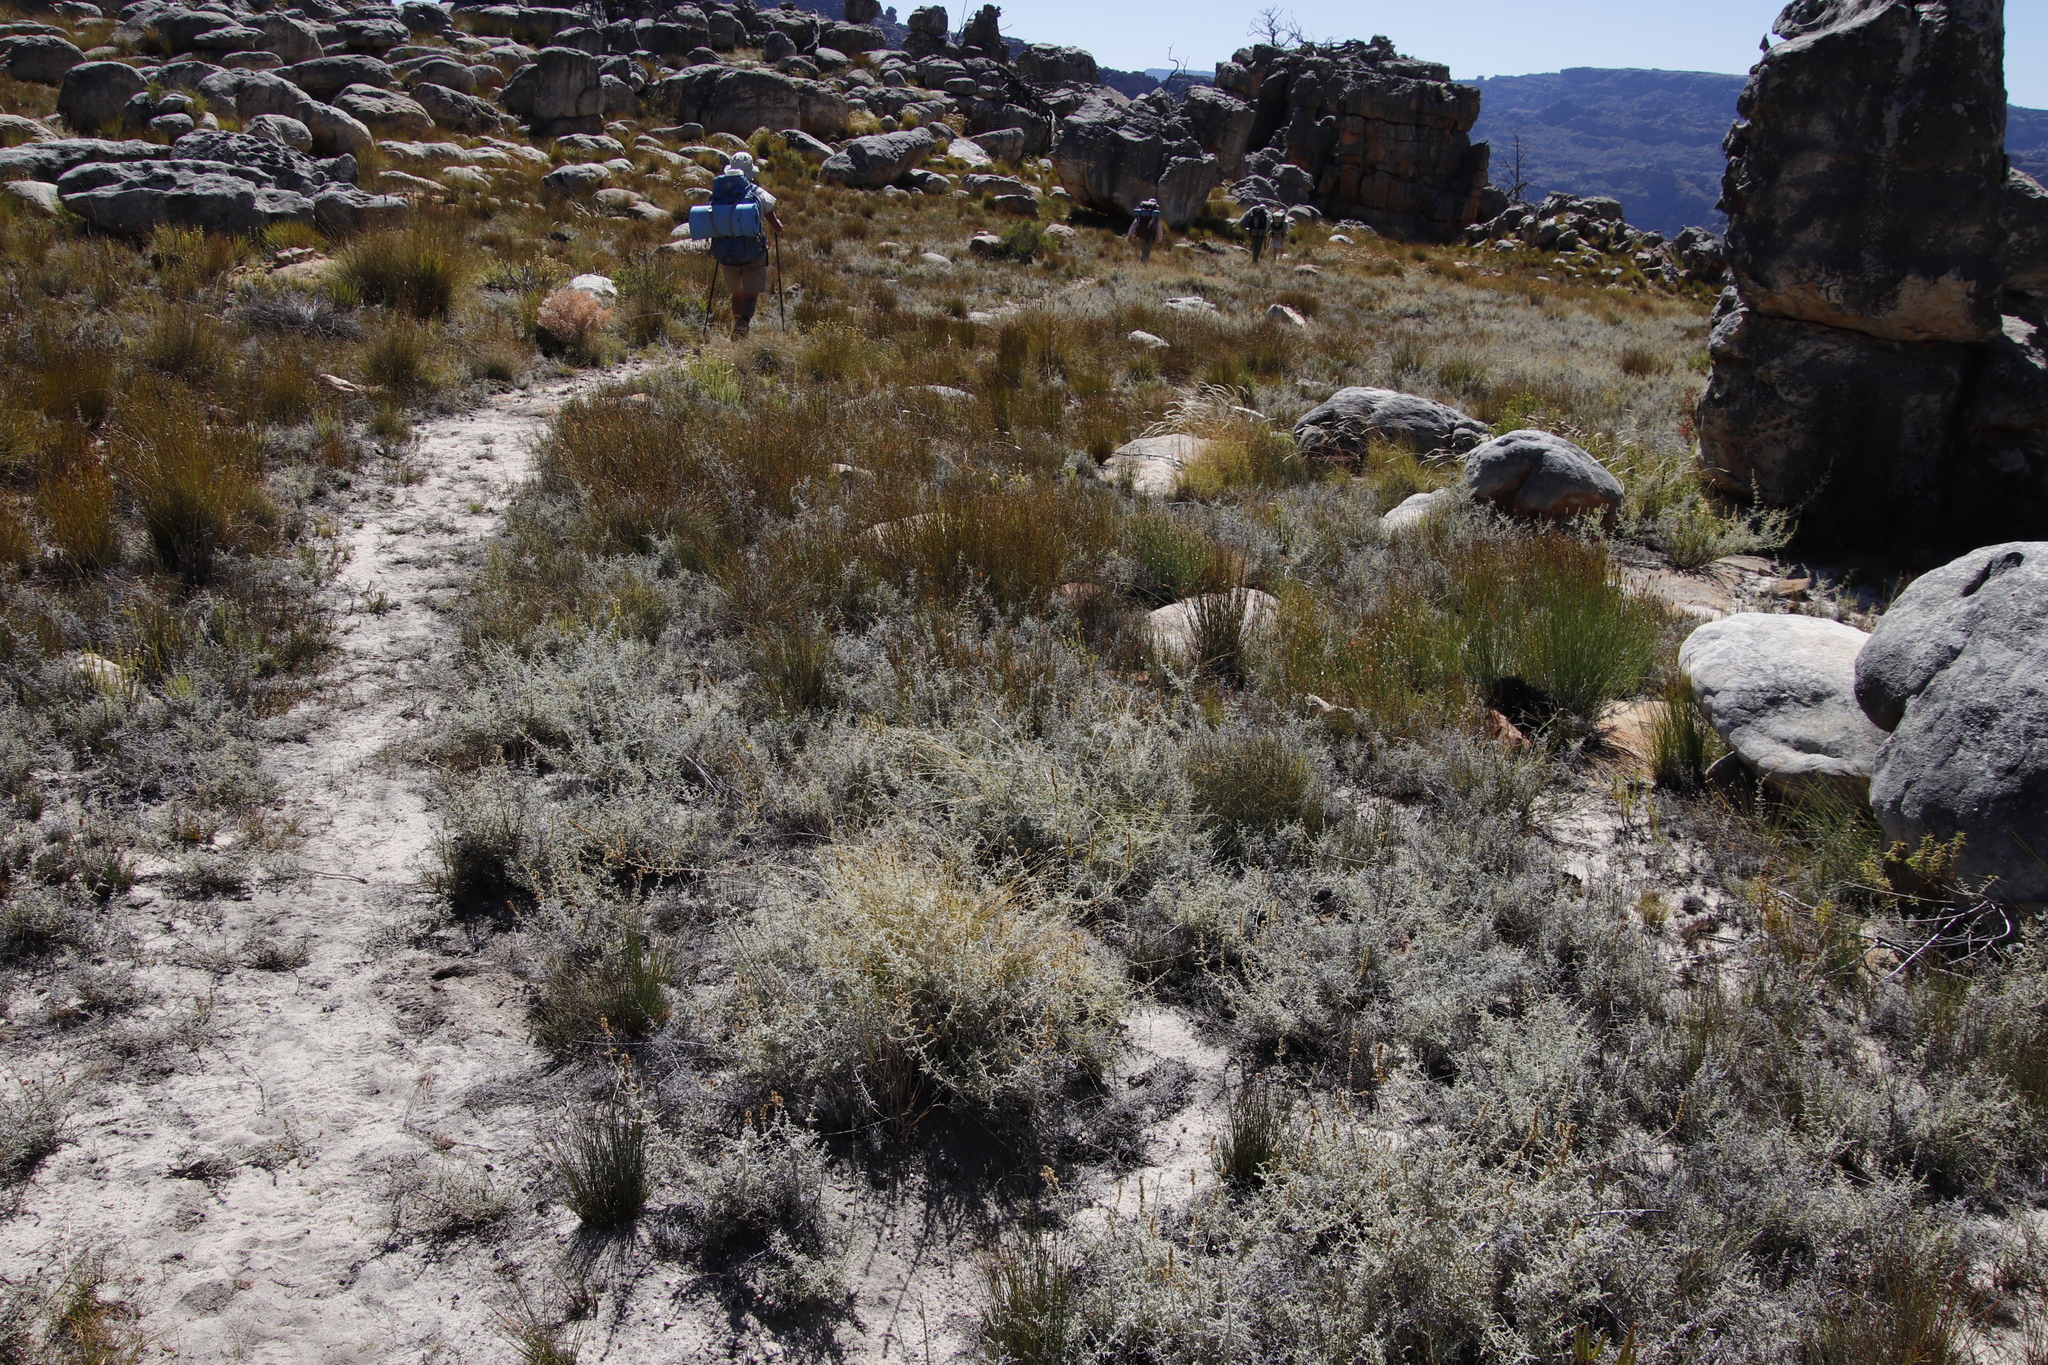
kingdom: Plantae
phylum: Tracheophyta
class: Magnoliopsida
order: Asterales
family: Asteraceae
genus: Seriphium
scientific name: Seriphium plumosum
